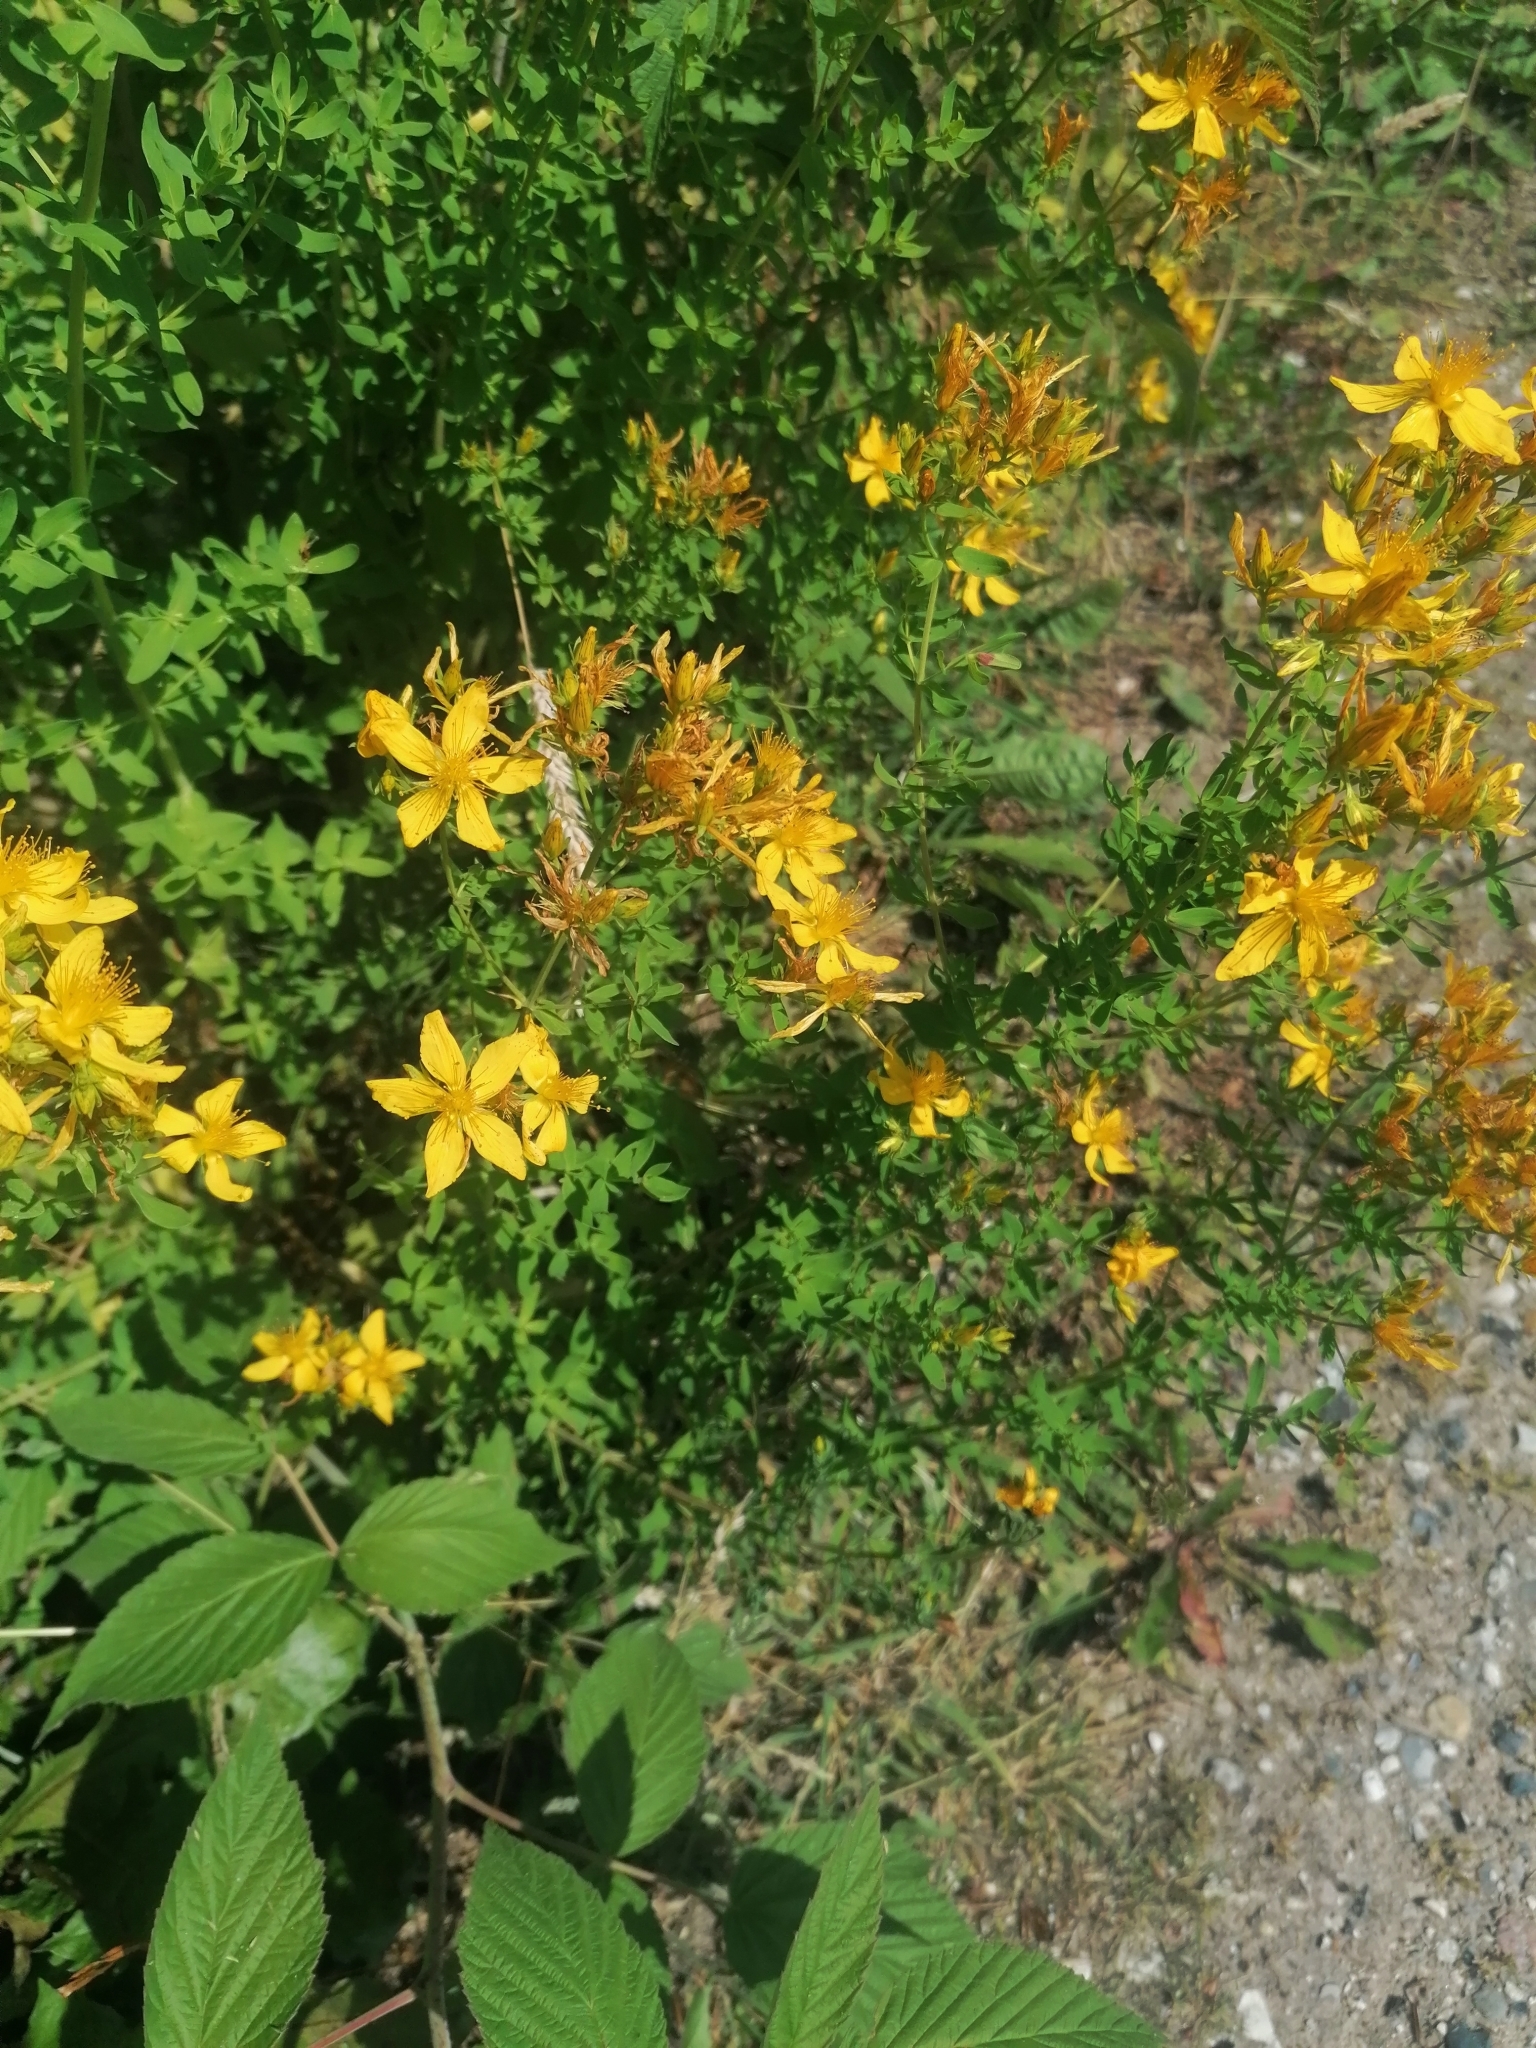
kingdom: Plantae
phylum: Tracheophyta
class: Magnoliopsida
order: Malpighiales
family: Hypericaceae
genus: Hypericum
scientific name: Hypericum perforatum
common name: Common st. johnswort
